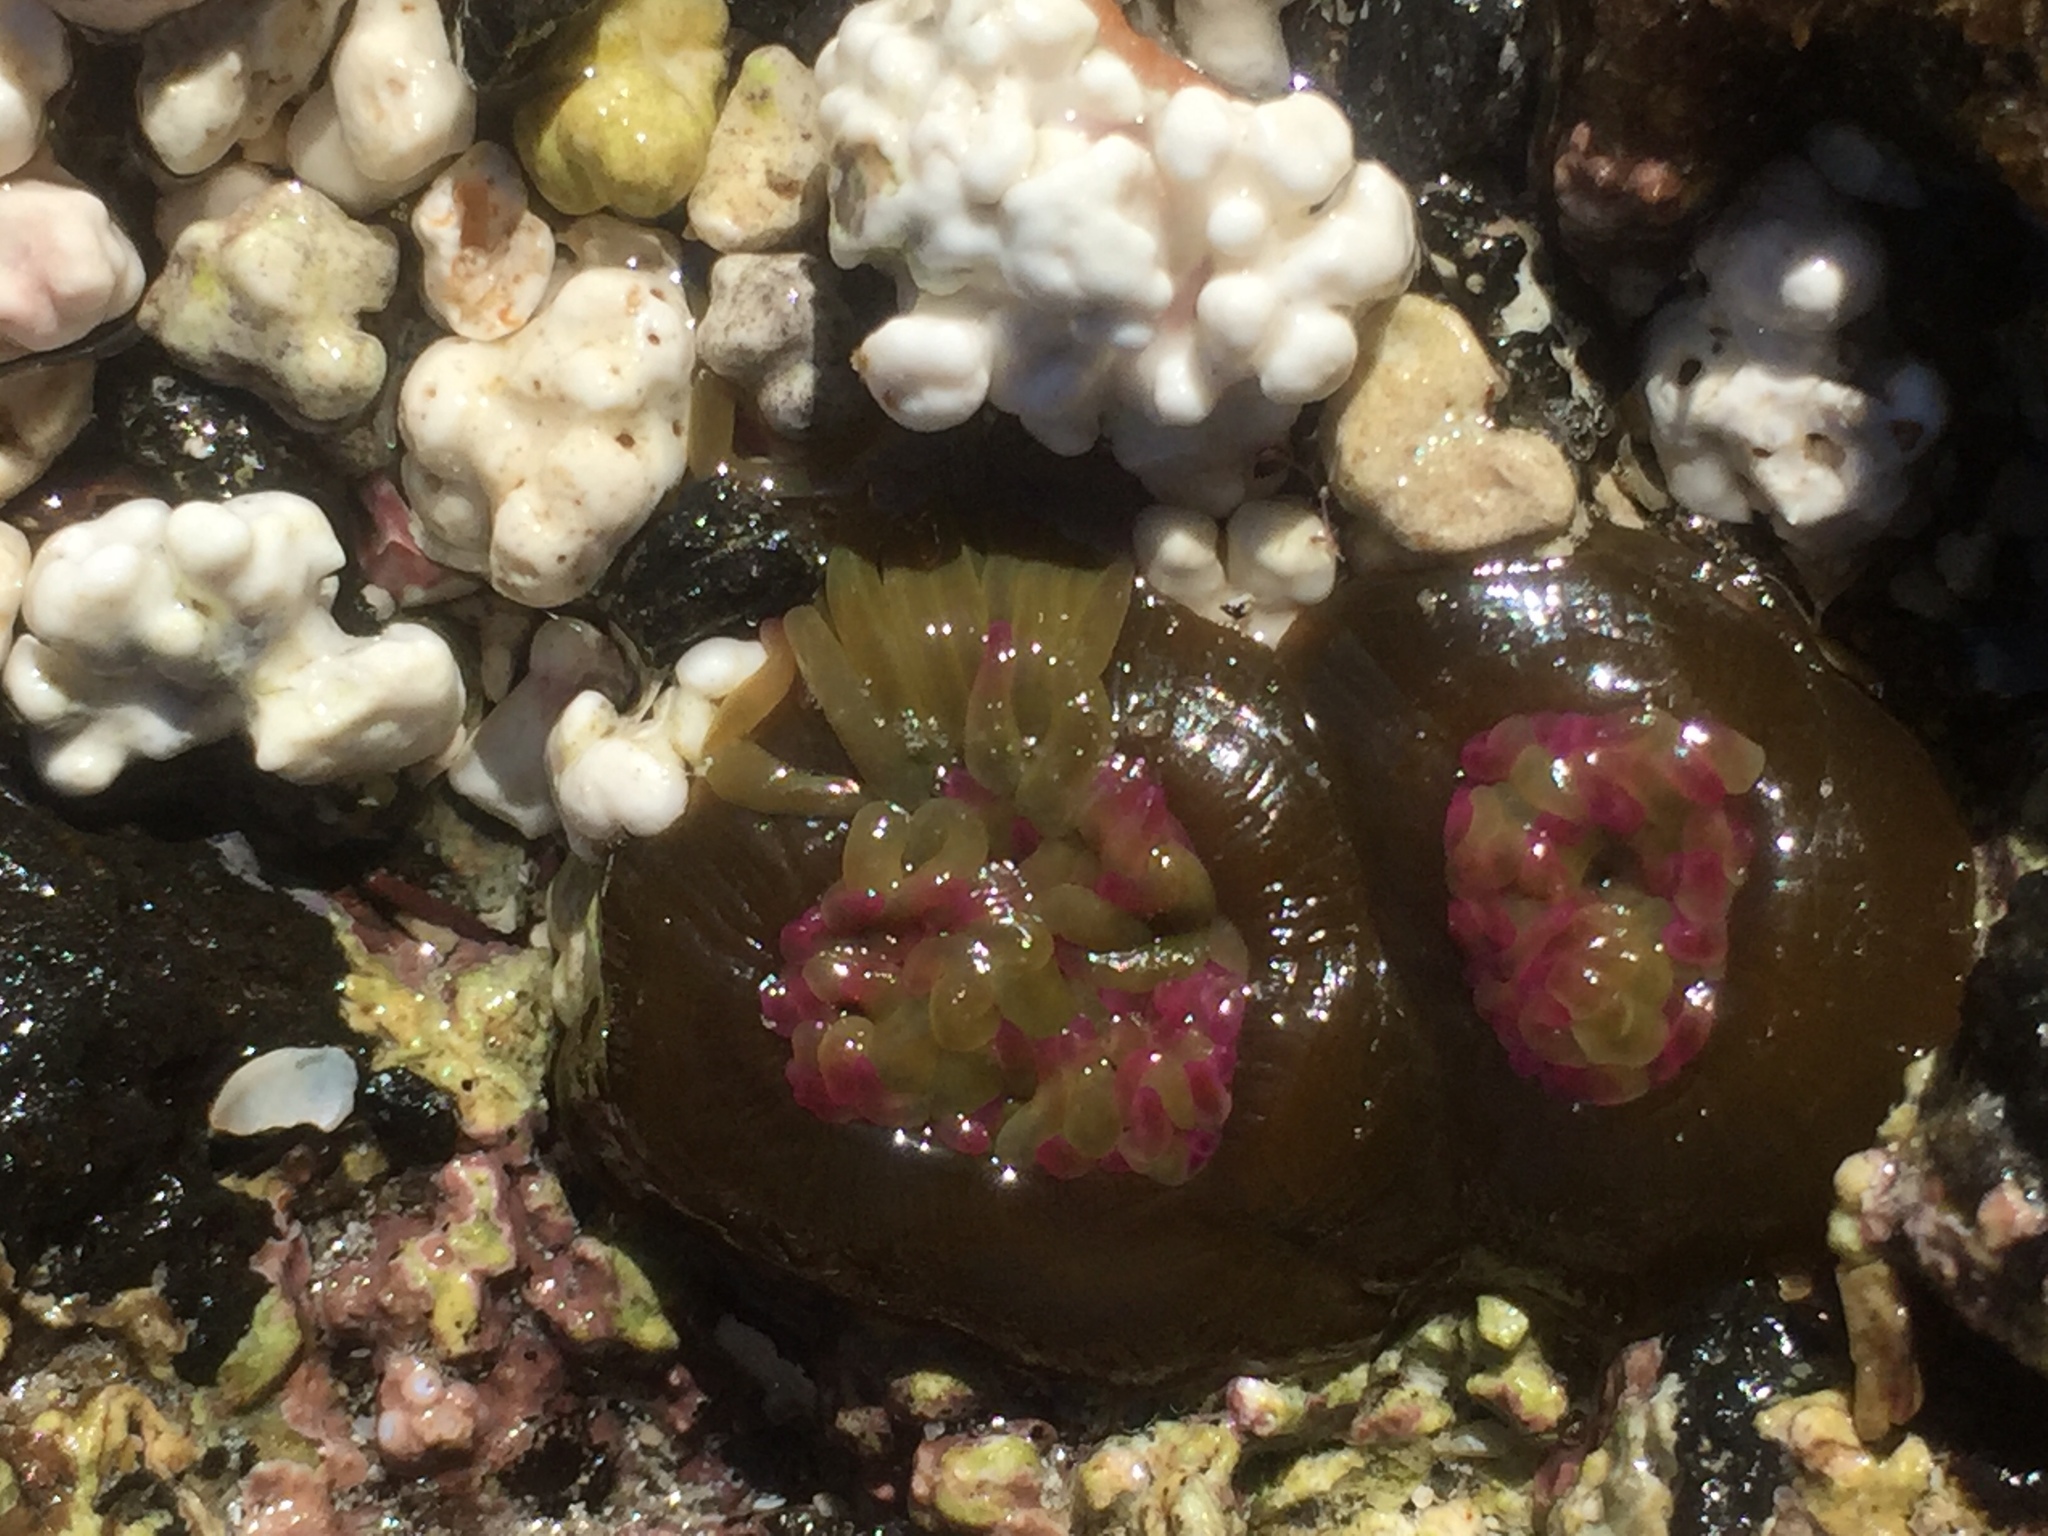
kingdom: Animalia
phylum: Cnidaria
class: Anthozoa
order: Actiniaria
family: Actiniidae
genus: Anemonia
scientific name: Anemonia viridis
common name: Snakelocks anemone
